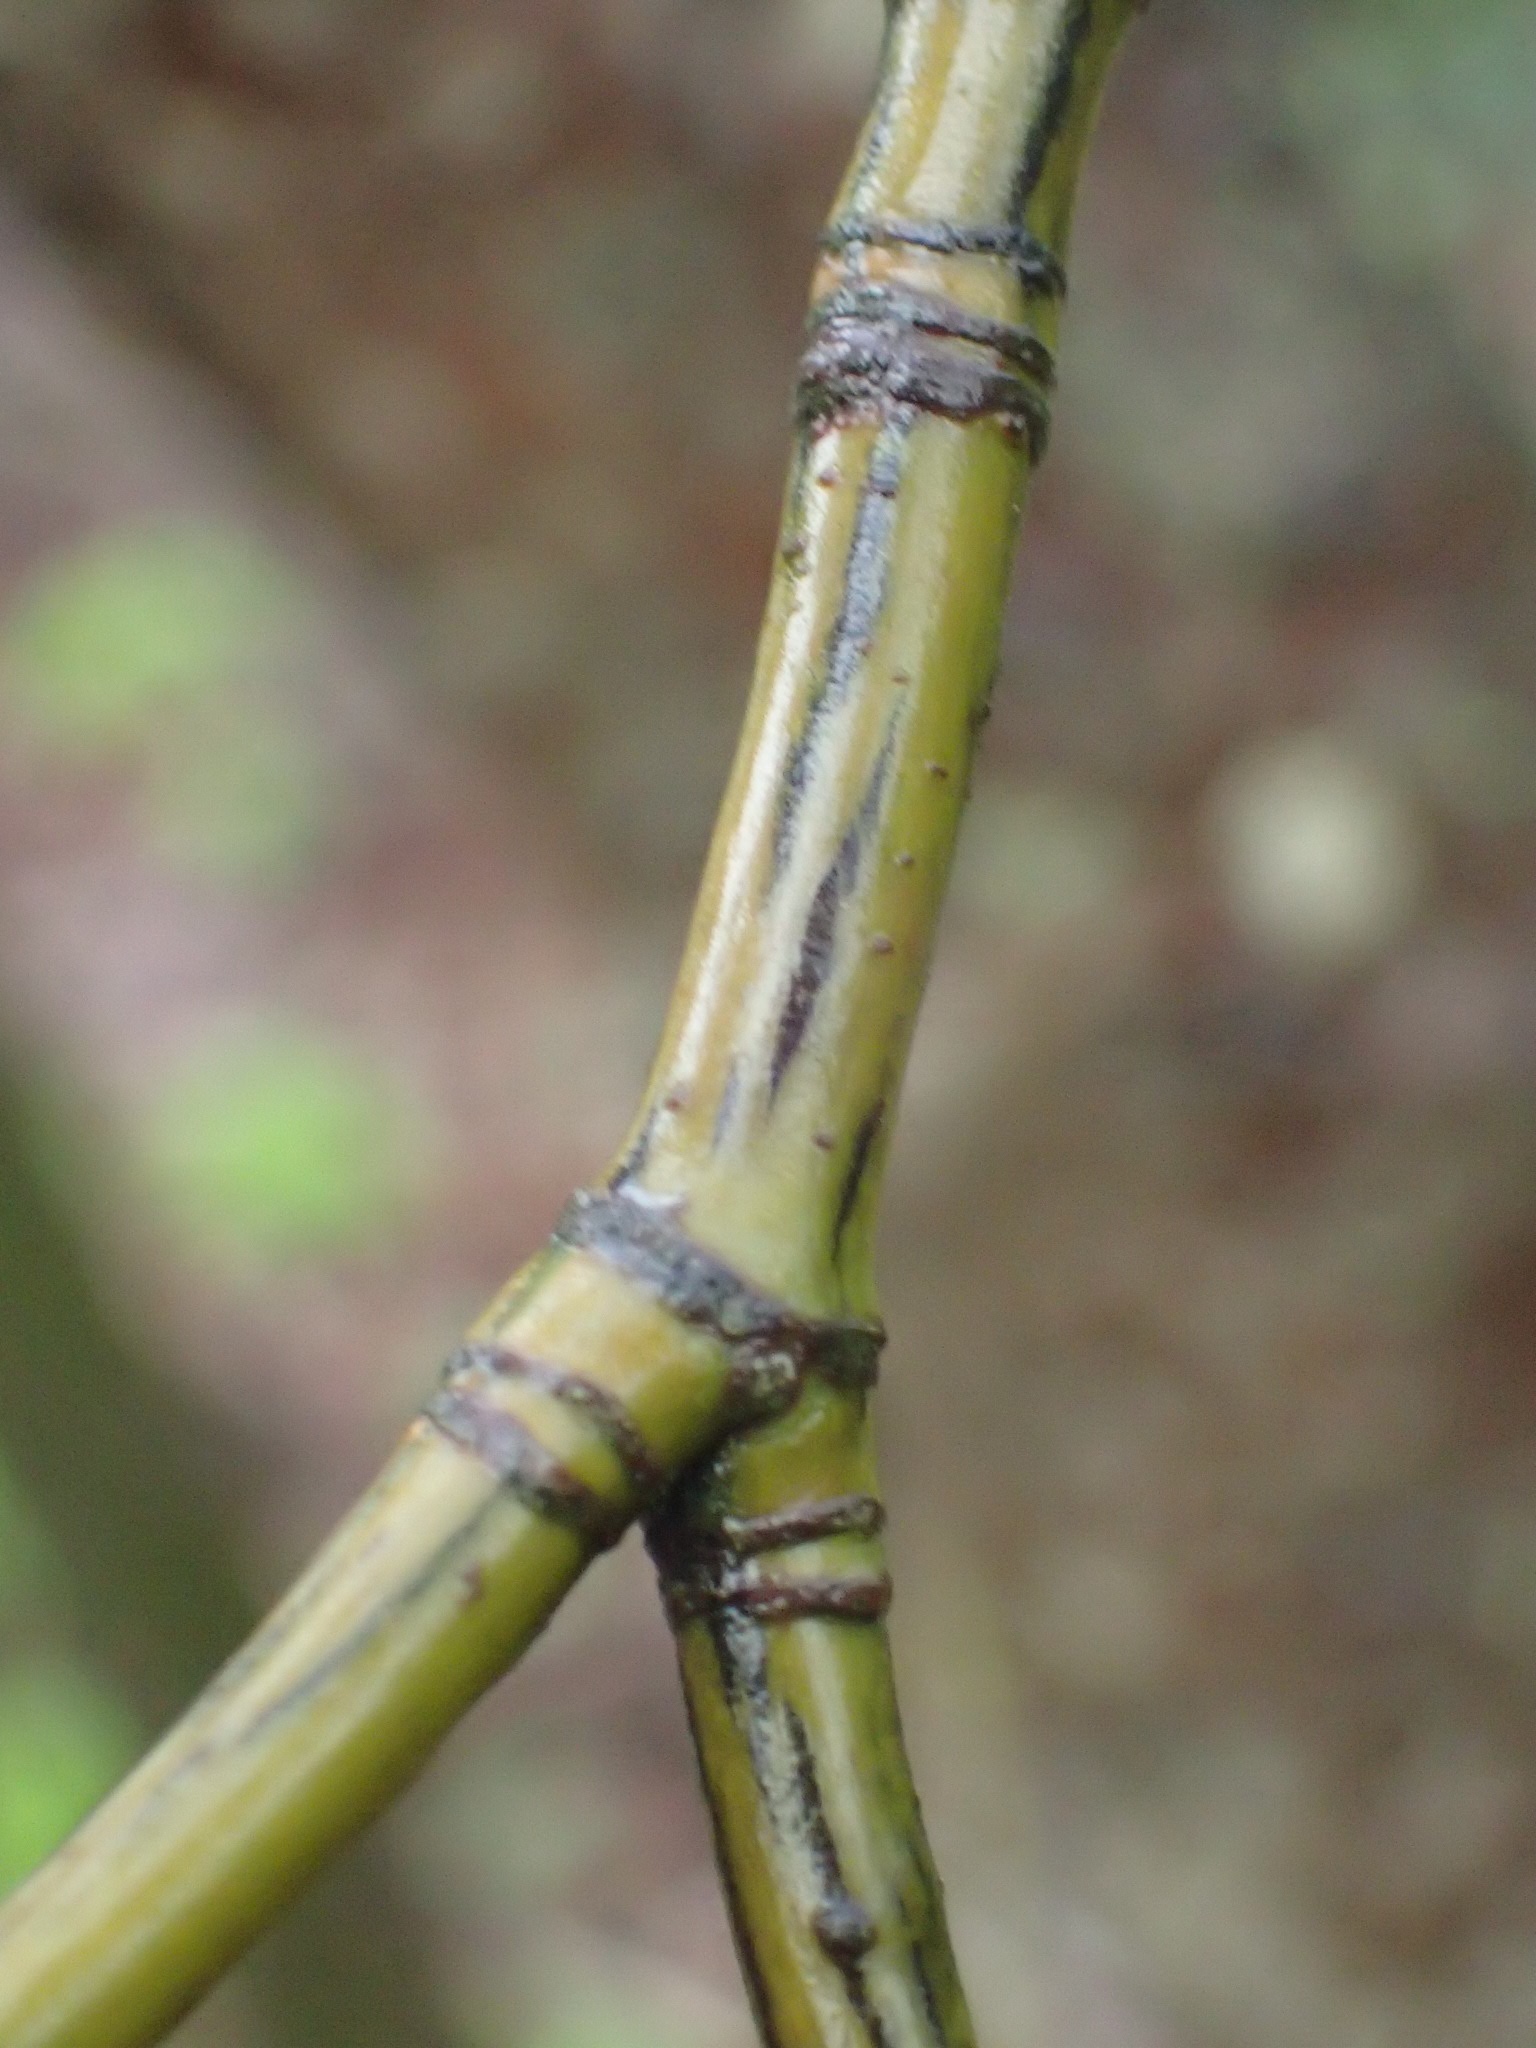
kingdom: Plantae
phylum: Tracheophyta
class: Magnoliopsida
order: Sapindales
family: Sapindaceae
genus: Acer
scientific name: Acer pensylvanicum
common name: Moosewood
